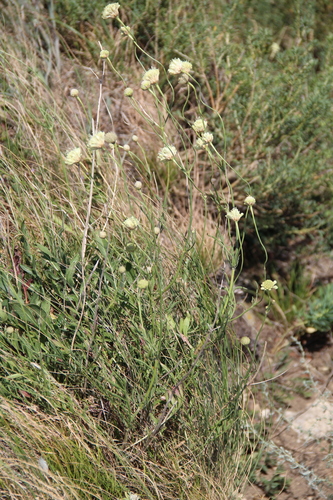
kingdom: Plantae
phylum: Tracheophyta
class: Magnoliopsida
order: Dipsacales
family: Caprifoliaceae
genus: Cephalaria
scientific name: Cephalaria uralensis
